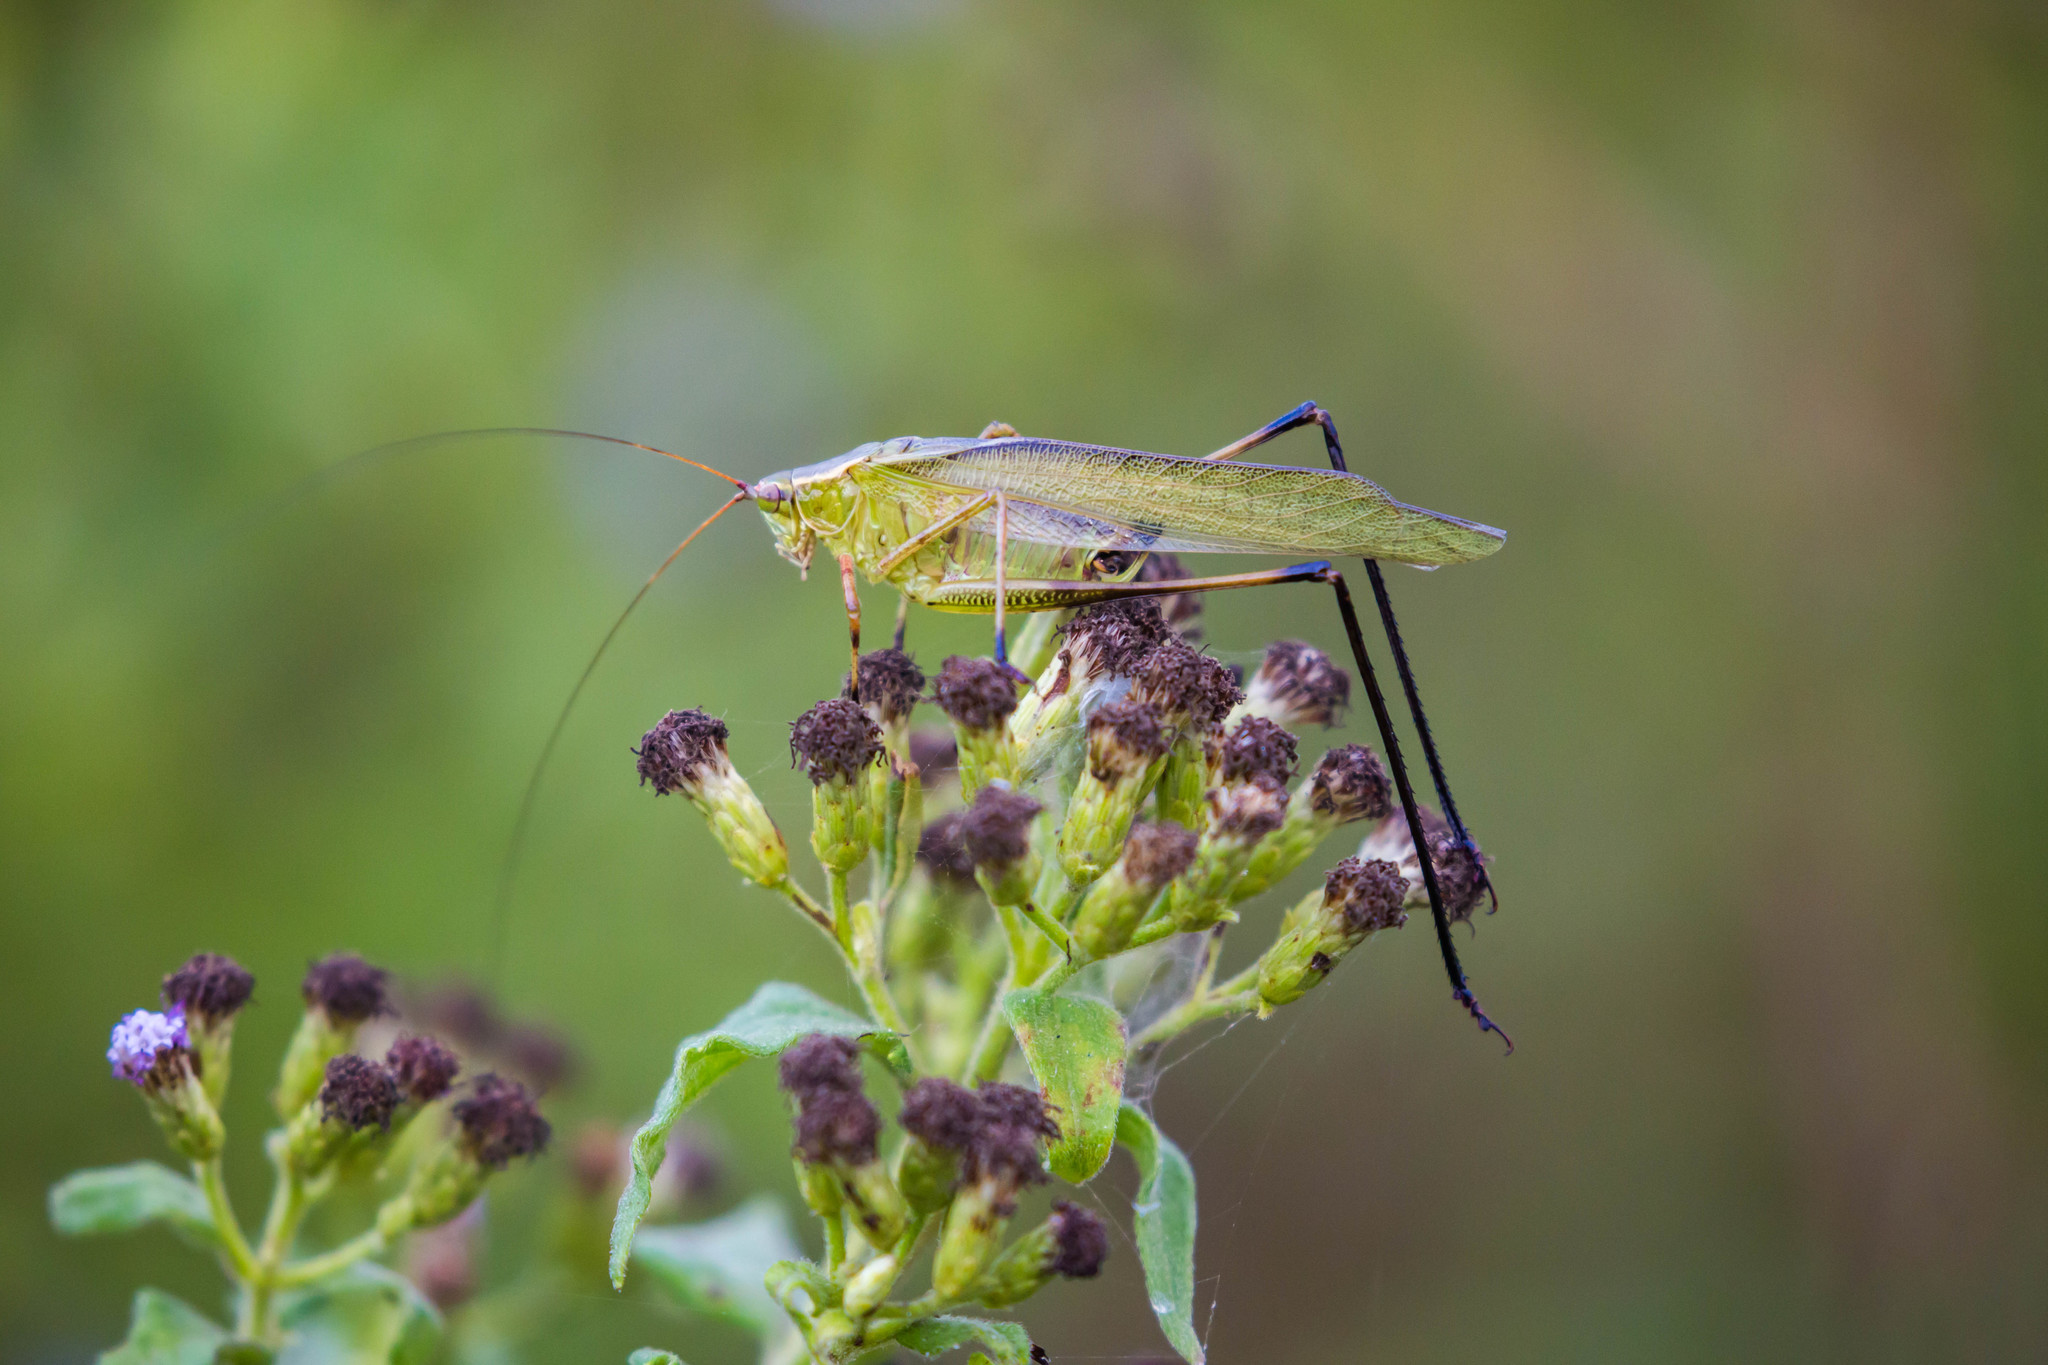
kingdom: Animalia
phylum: Arthropoda
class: Insecta
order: Orthoptera
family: Tettigoniidae
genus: Scudderia
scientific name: Scudderia furcata
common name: Fork-tailed bush katydid
